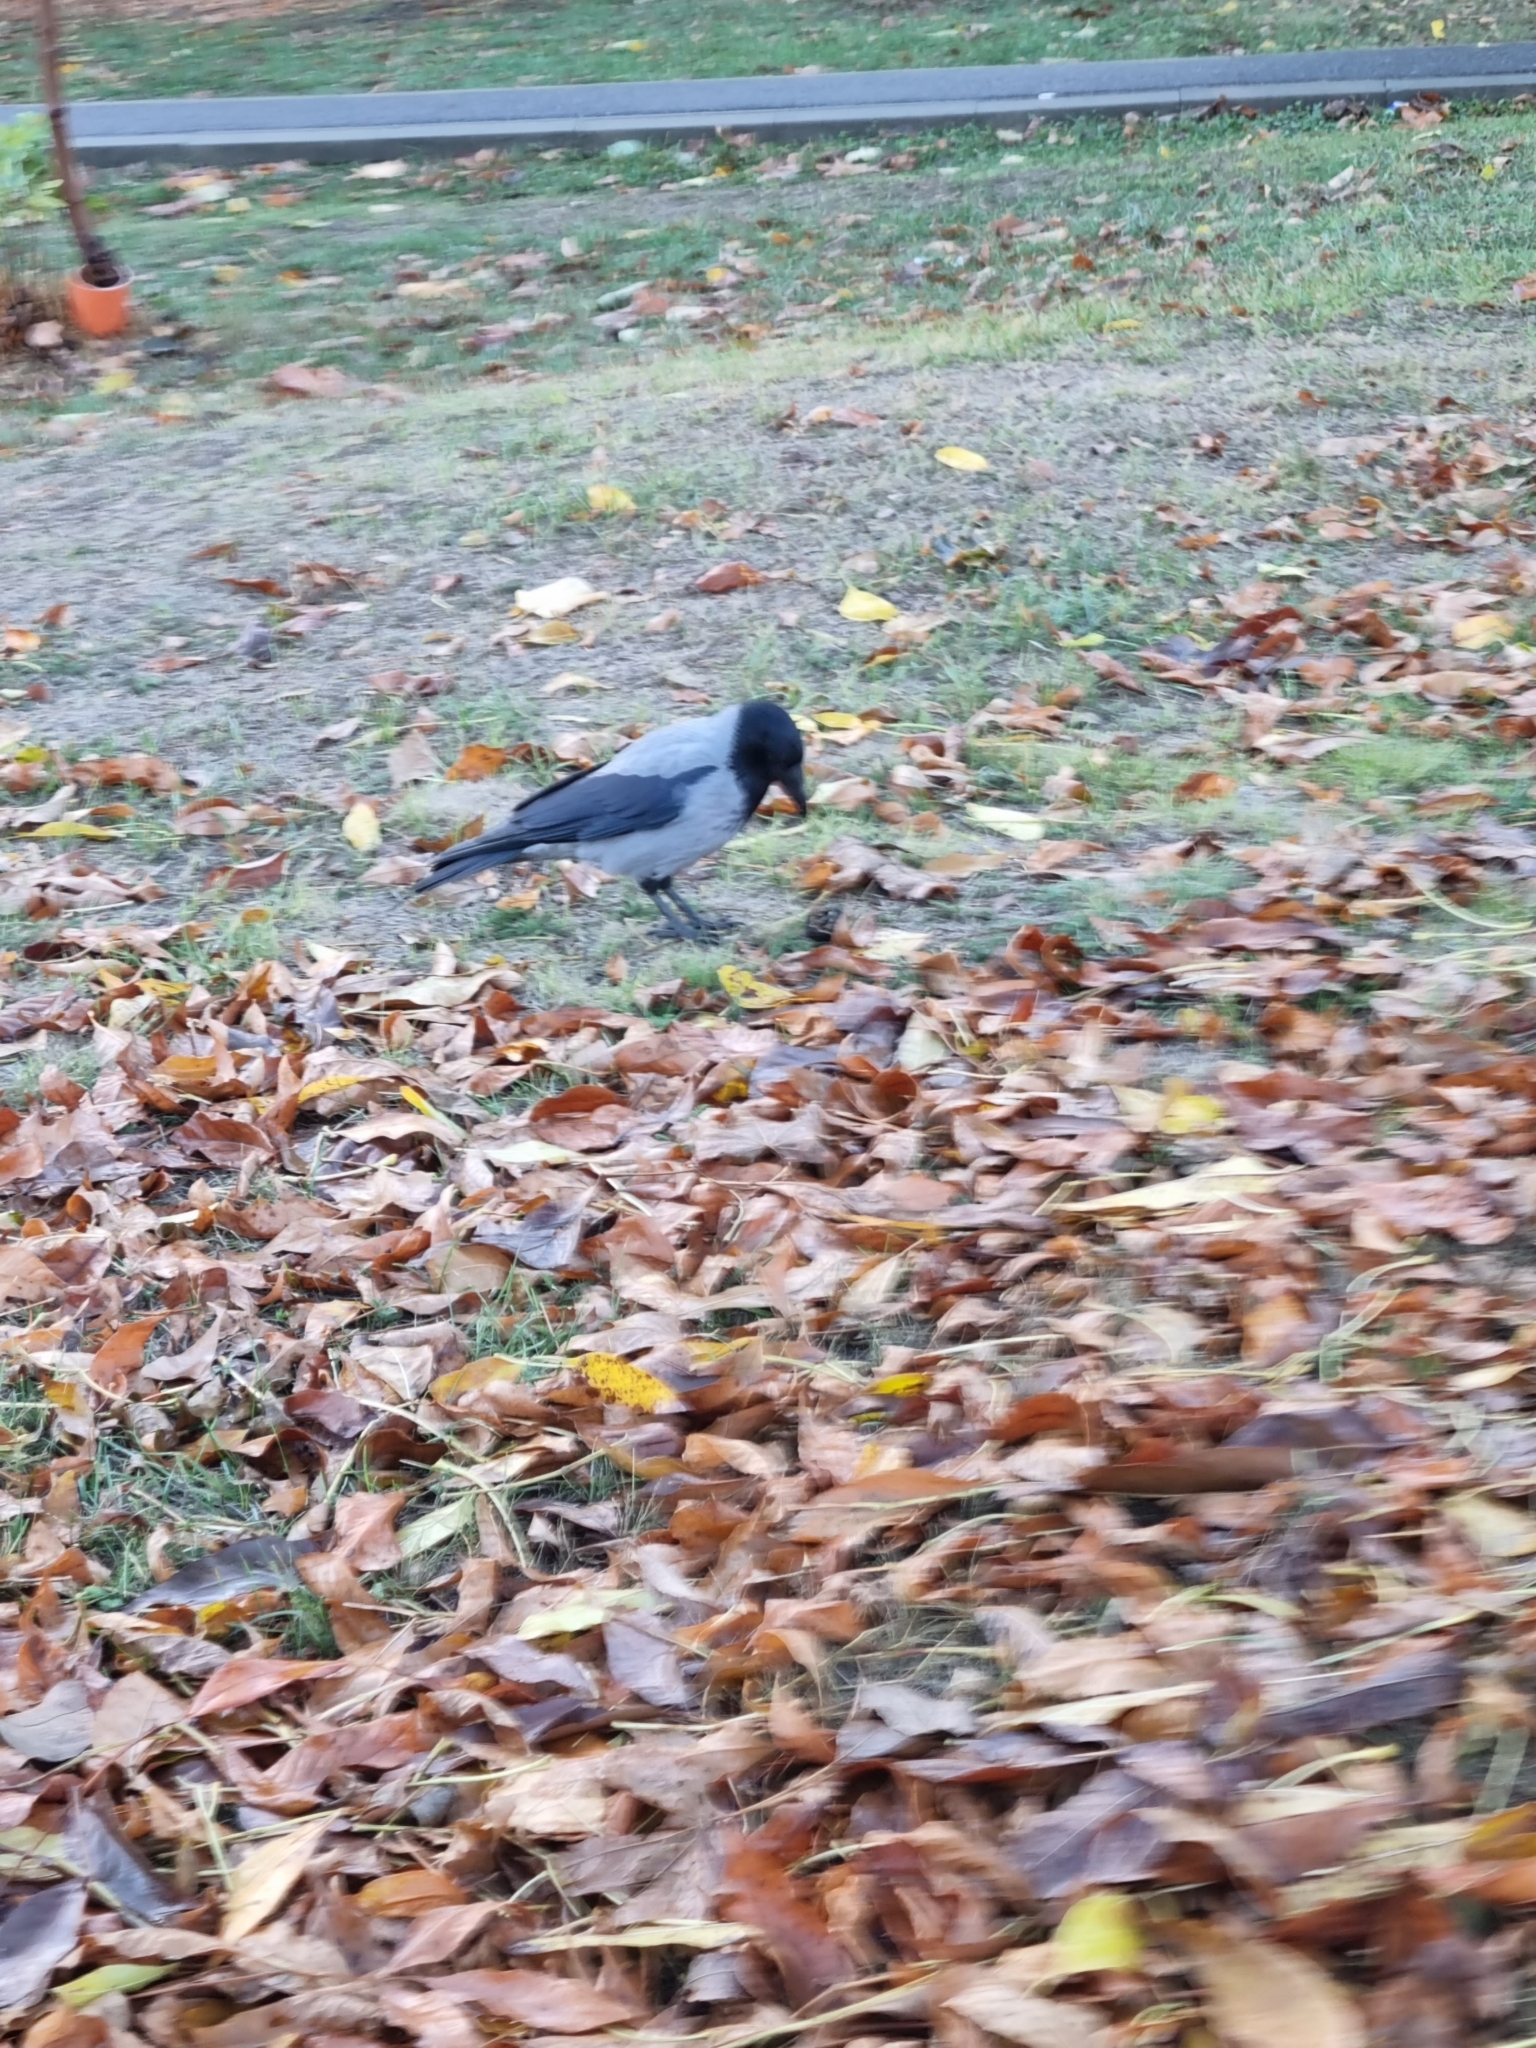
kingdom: Animalia
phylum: Chordata
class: Aves
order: Passeriformes
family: Corvidae
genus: Corvus
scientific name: Corvus cornix
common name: Hooded crow
